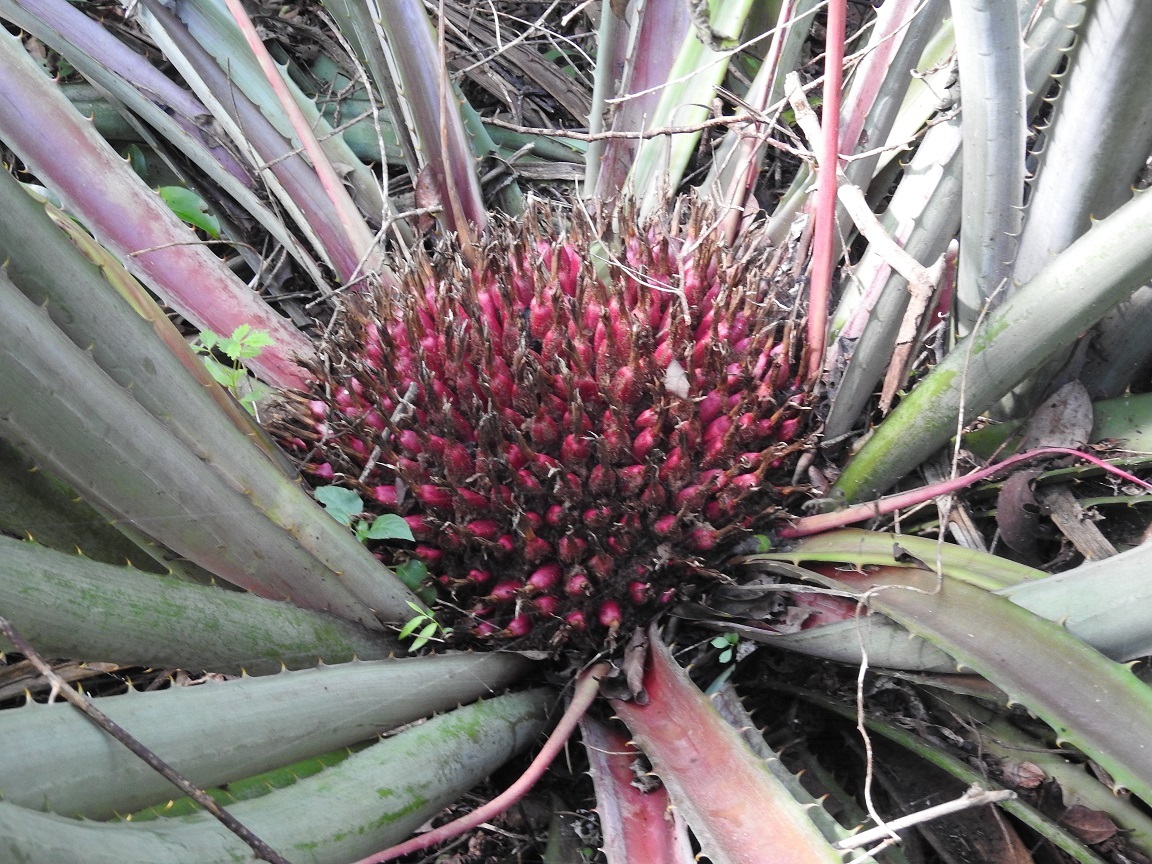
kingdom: Plantae
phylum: Tracheophyta
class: Liliopsida
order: Poales
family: Bromeliaceae
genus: Bromelia
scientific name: Bromelia karatas
